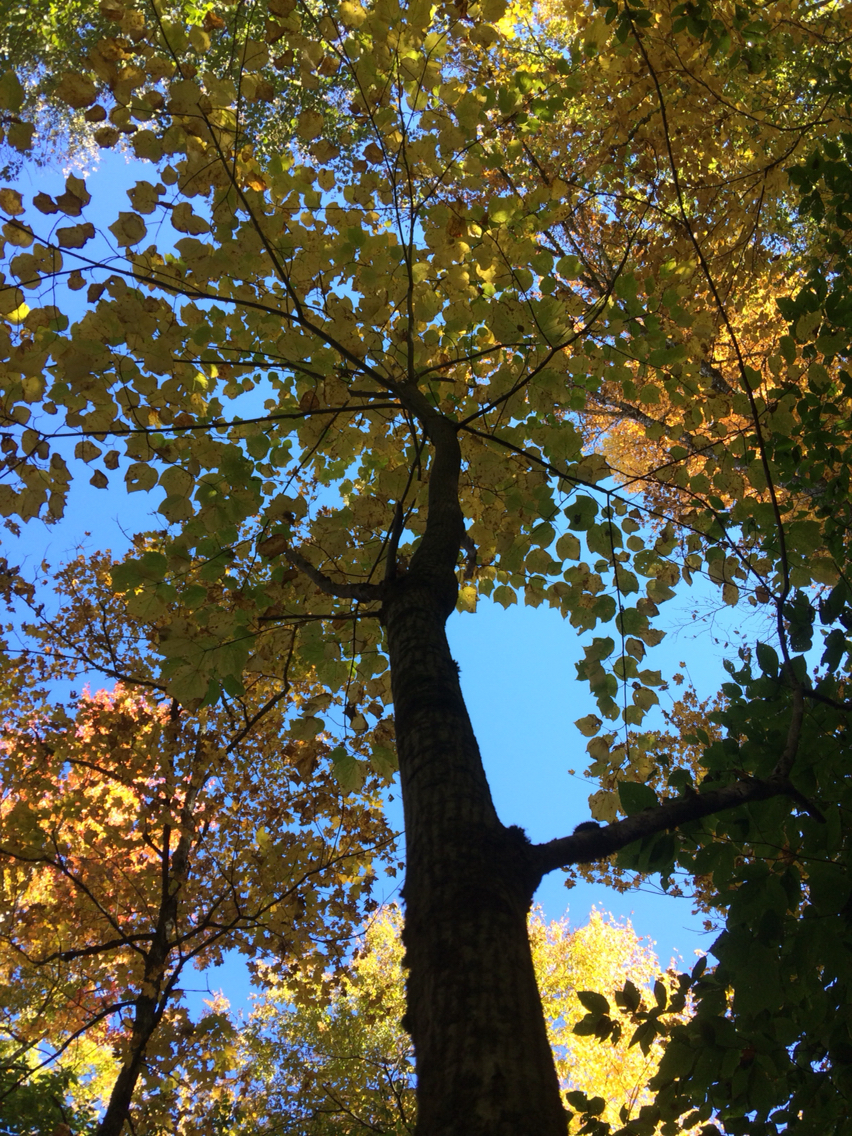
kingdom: Plantae
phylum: Tracheophyta
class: Magnoliopsida
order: Sapindales
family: Sapindaceae
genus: Acer
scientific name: Acer pensylvanicum
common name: Moosewood
